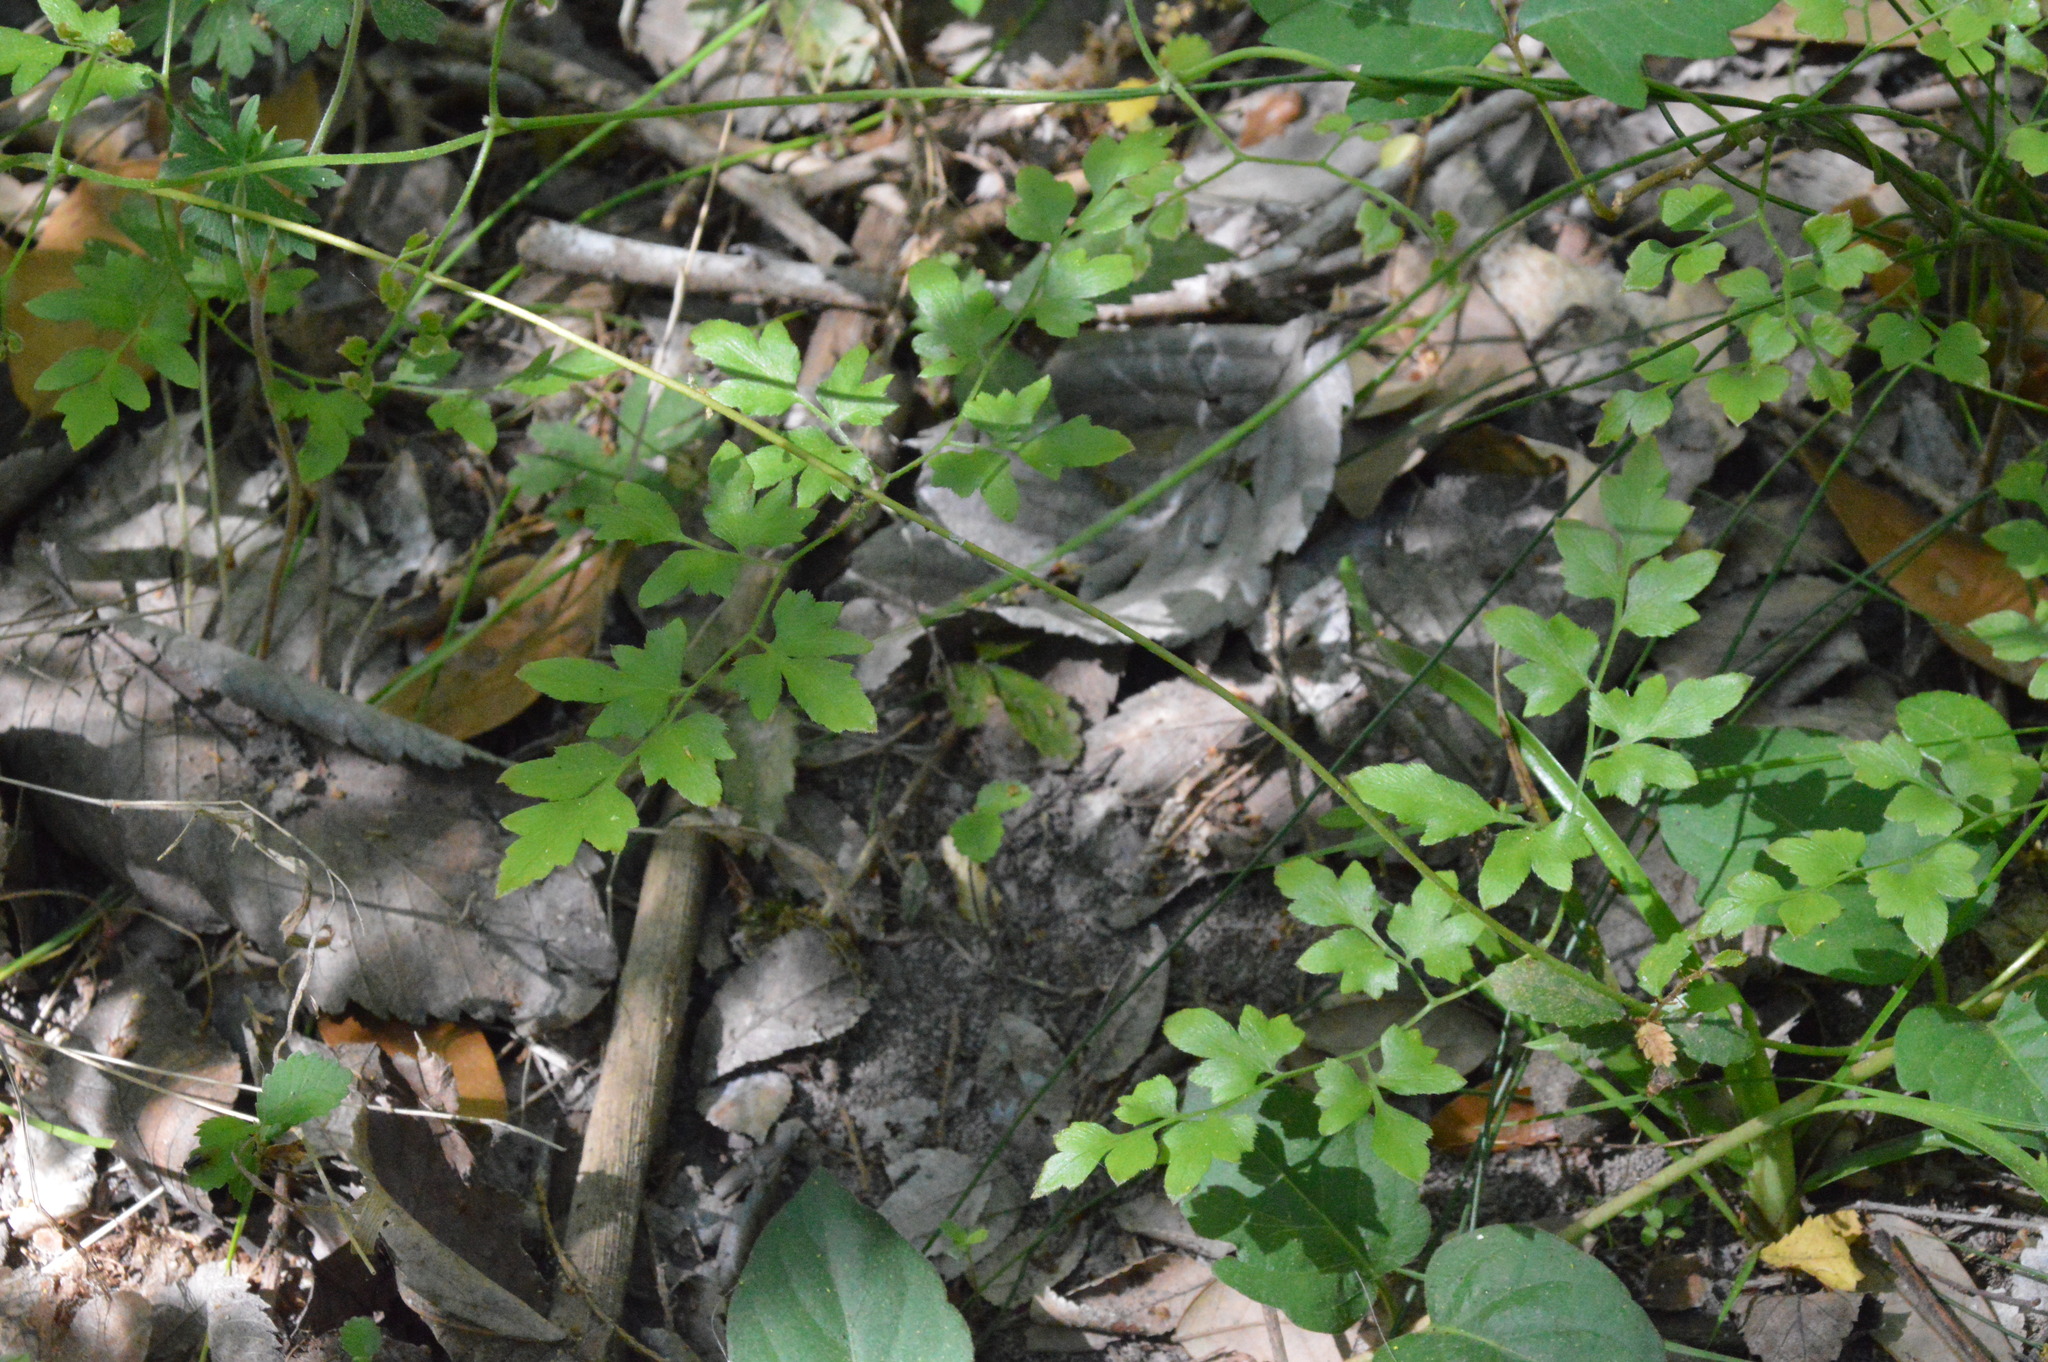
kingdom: Plantae
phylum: Tracheophyta
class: Polypodiopsida
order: Schizaeales
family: Lygodiaceae
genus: Lygodium
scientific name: Lygodium japonicum
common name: Japanese climbing fern
